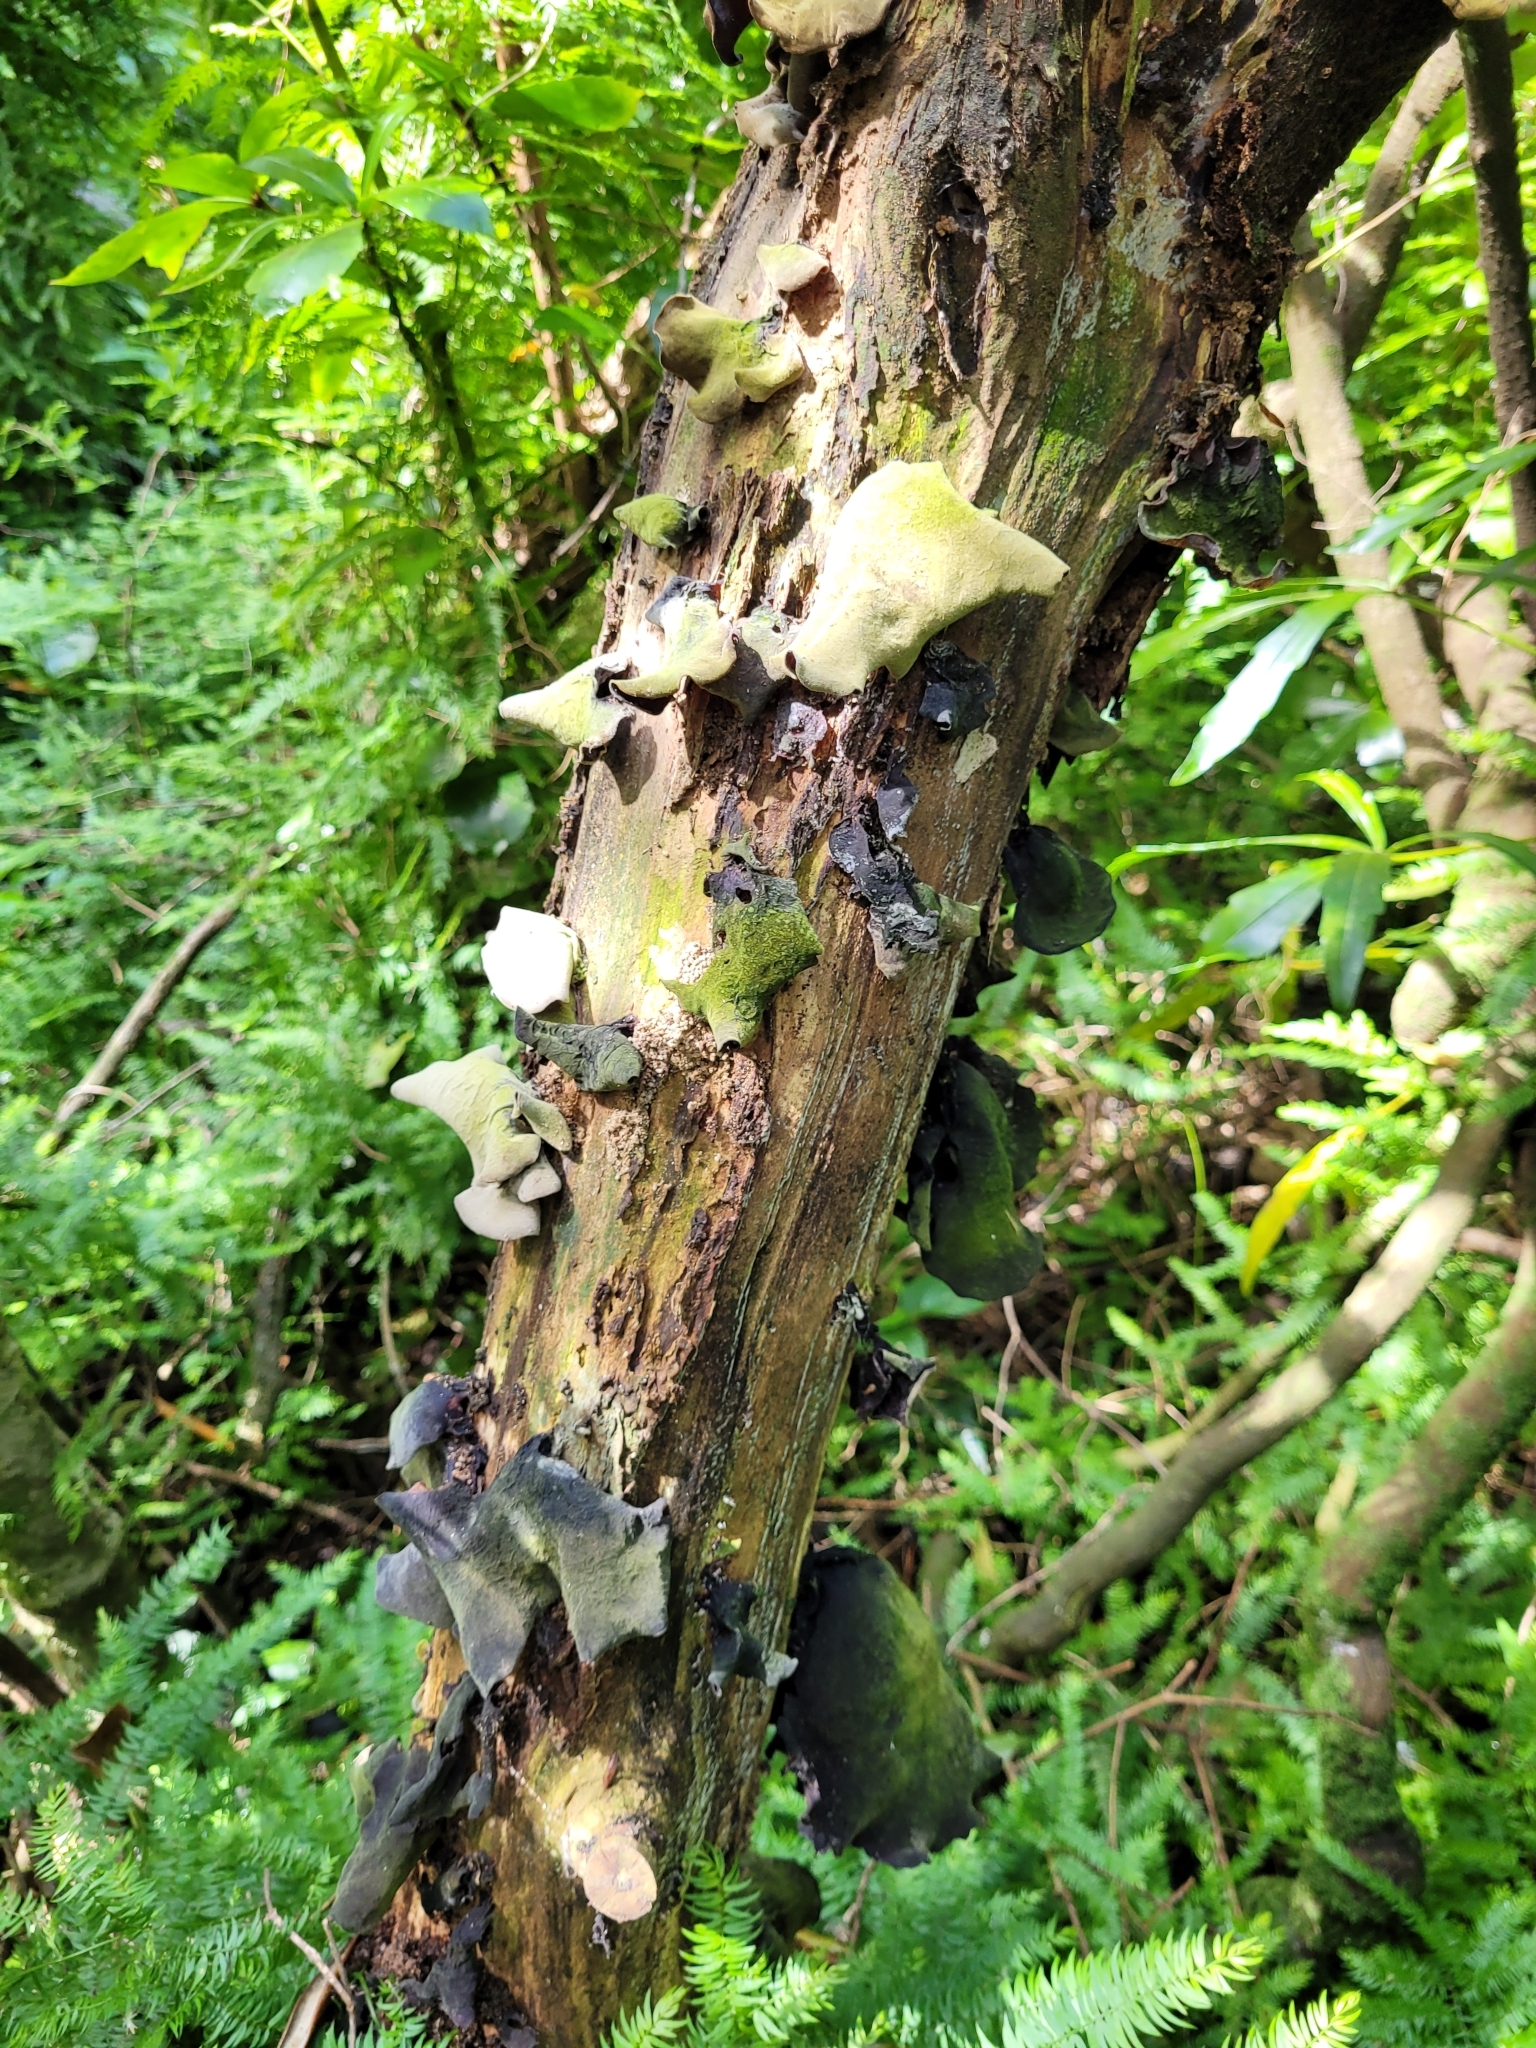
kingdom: Fungi
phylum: Basidiomycota
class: Agaricomycetes
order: Auriculariales
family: Auriculariaceae
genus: Auricularia
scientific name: Auricularia cornea
